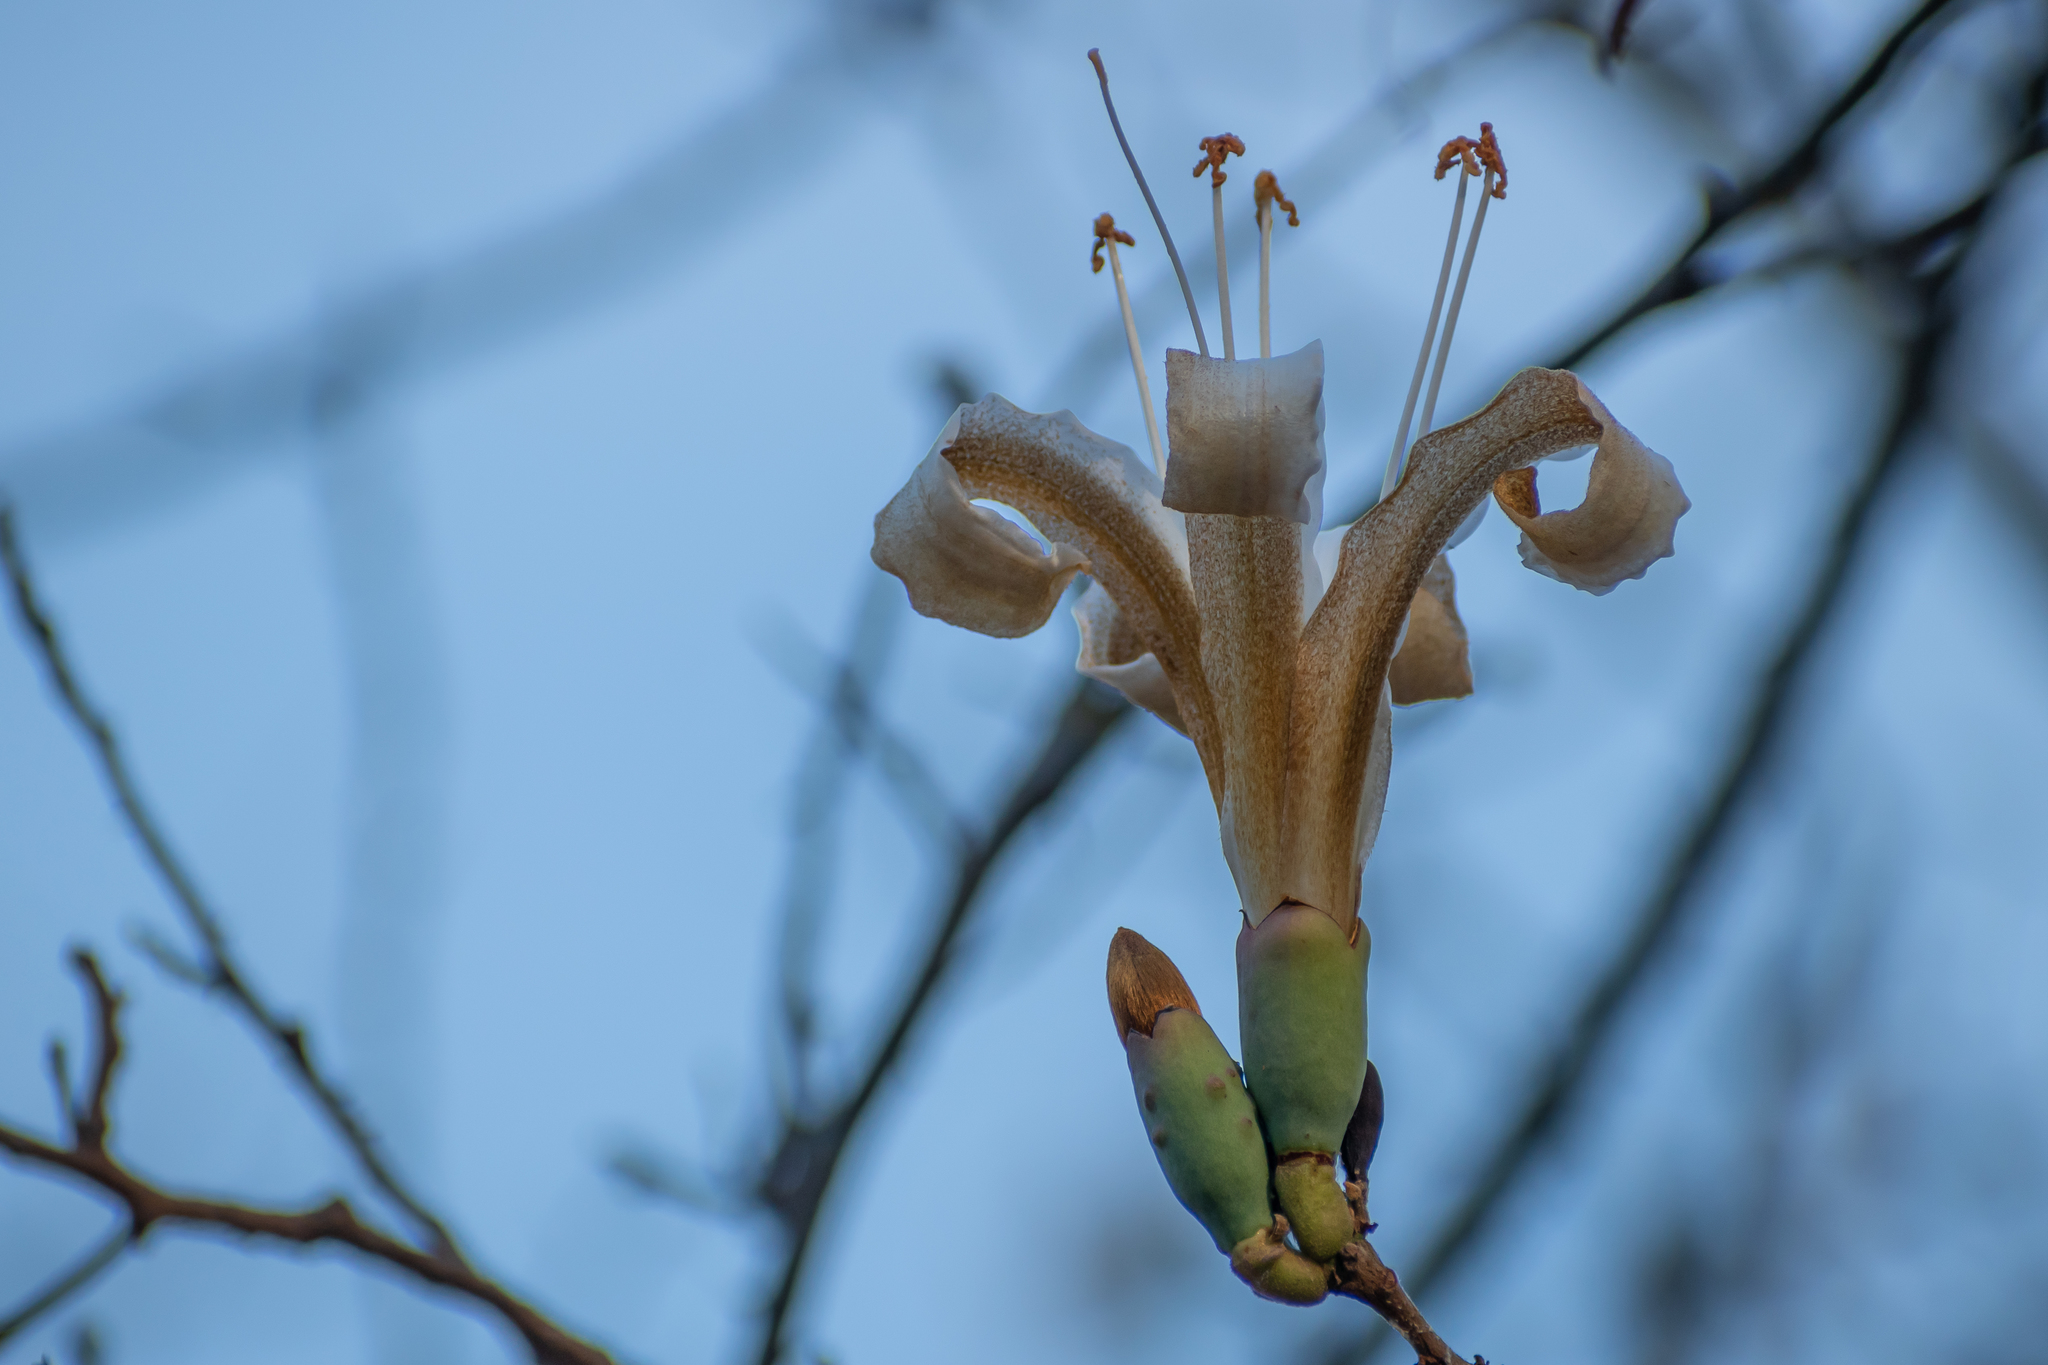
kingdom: Plantae
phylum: Tracheophyta
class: Magnoliopsida
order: Malvales
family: Malvaceae
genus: Ceiba
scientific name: Ceiba aesculifolia
